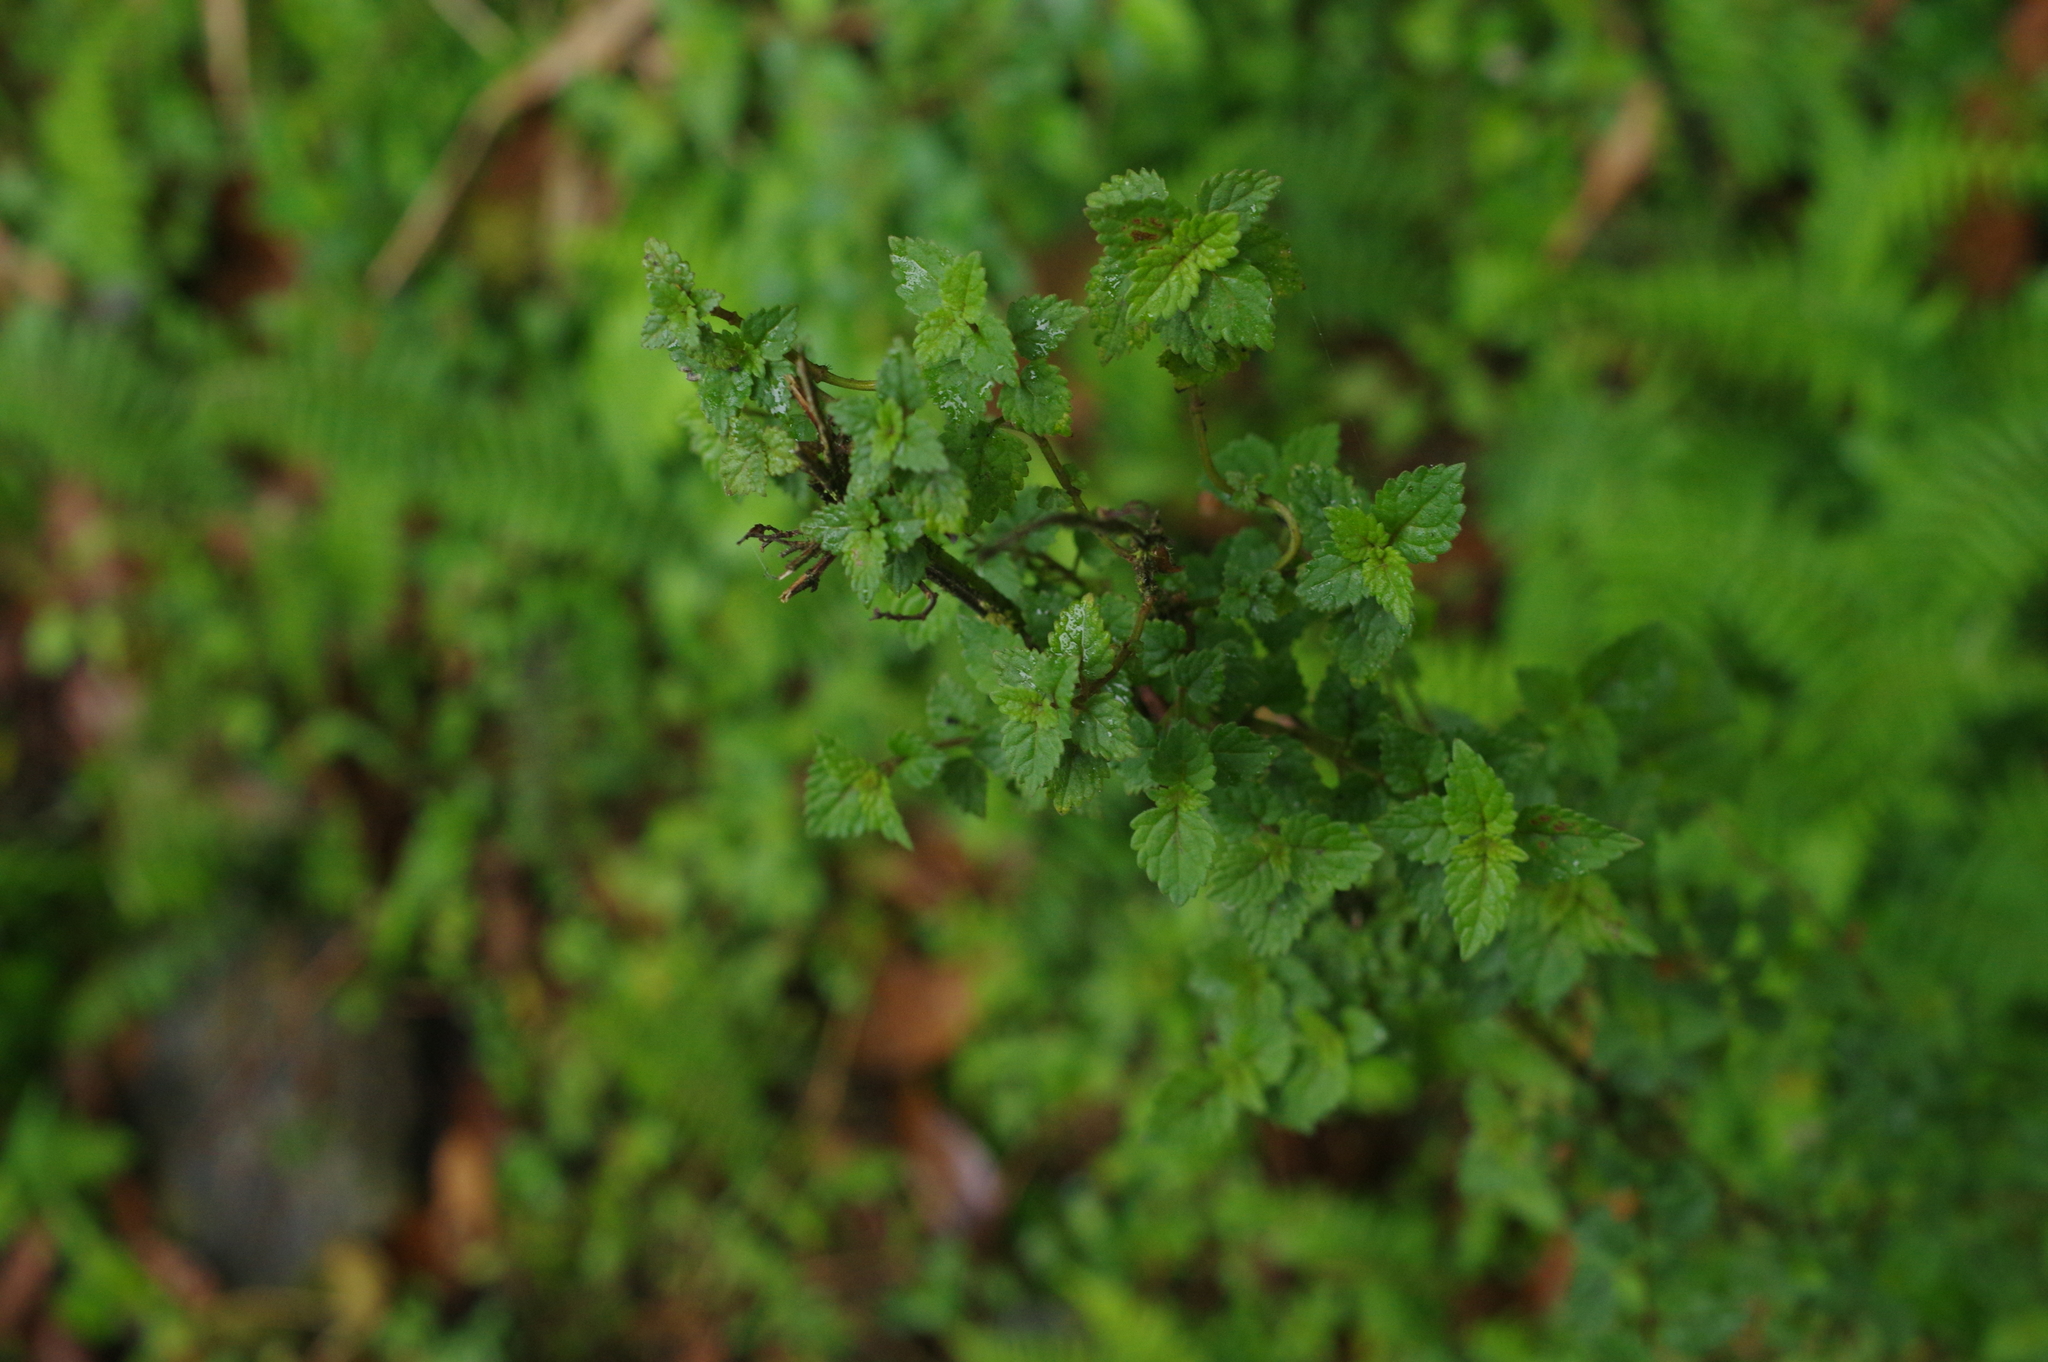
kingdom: Plantae
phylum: Tracheophyta
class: Magnoliopsida
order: Lamiales
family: Lamiaceae
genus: Melissa
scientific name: Melissa axillaris
